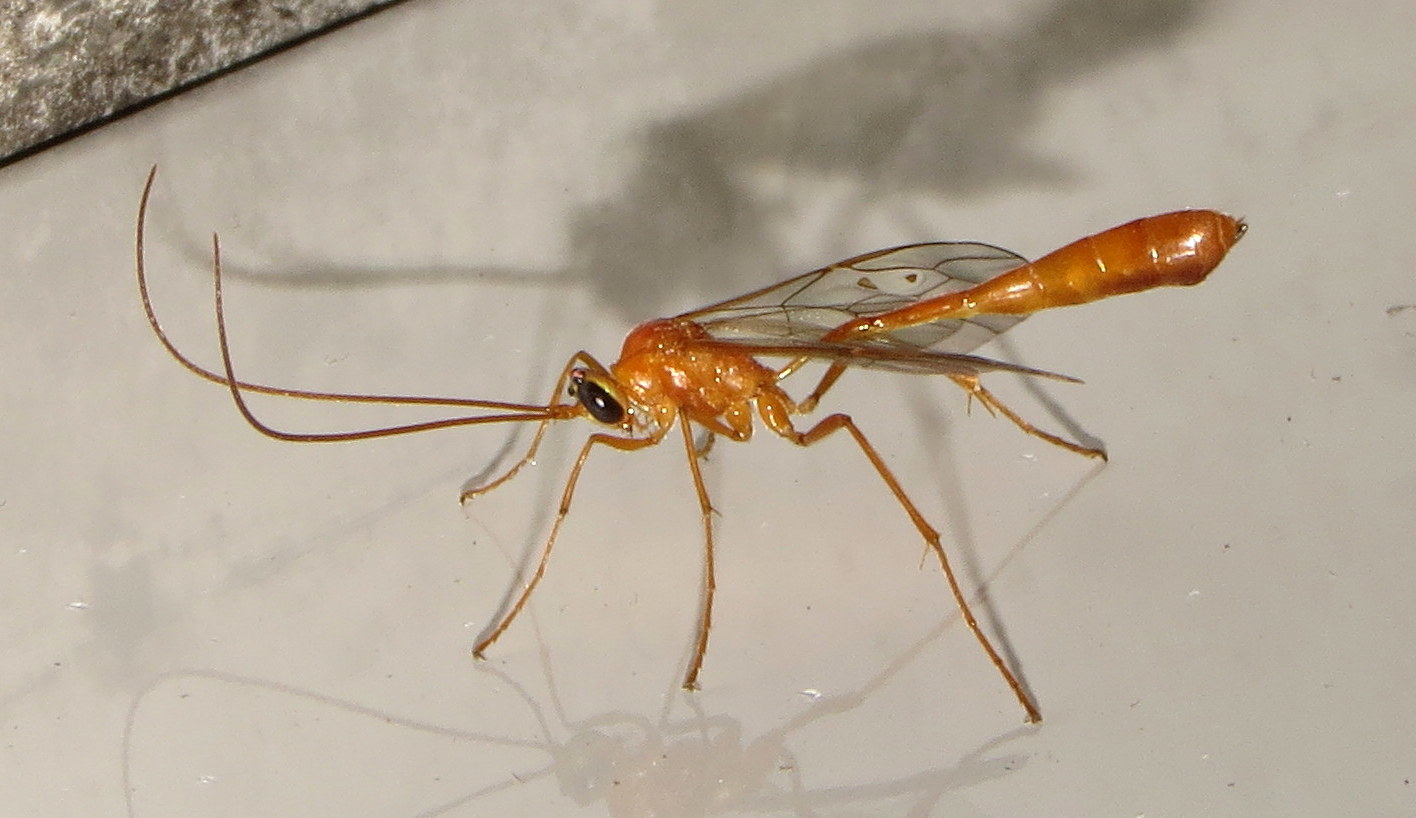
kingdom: Animalia
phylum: Arthropoda
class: Insecta
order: Hymenoptera
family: Ichneumonidae
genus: Enicospilus
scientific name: Enicospilus purgatus
